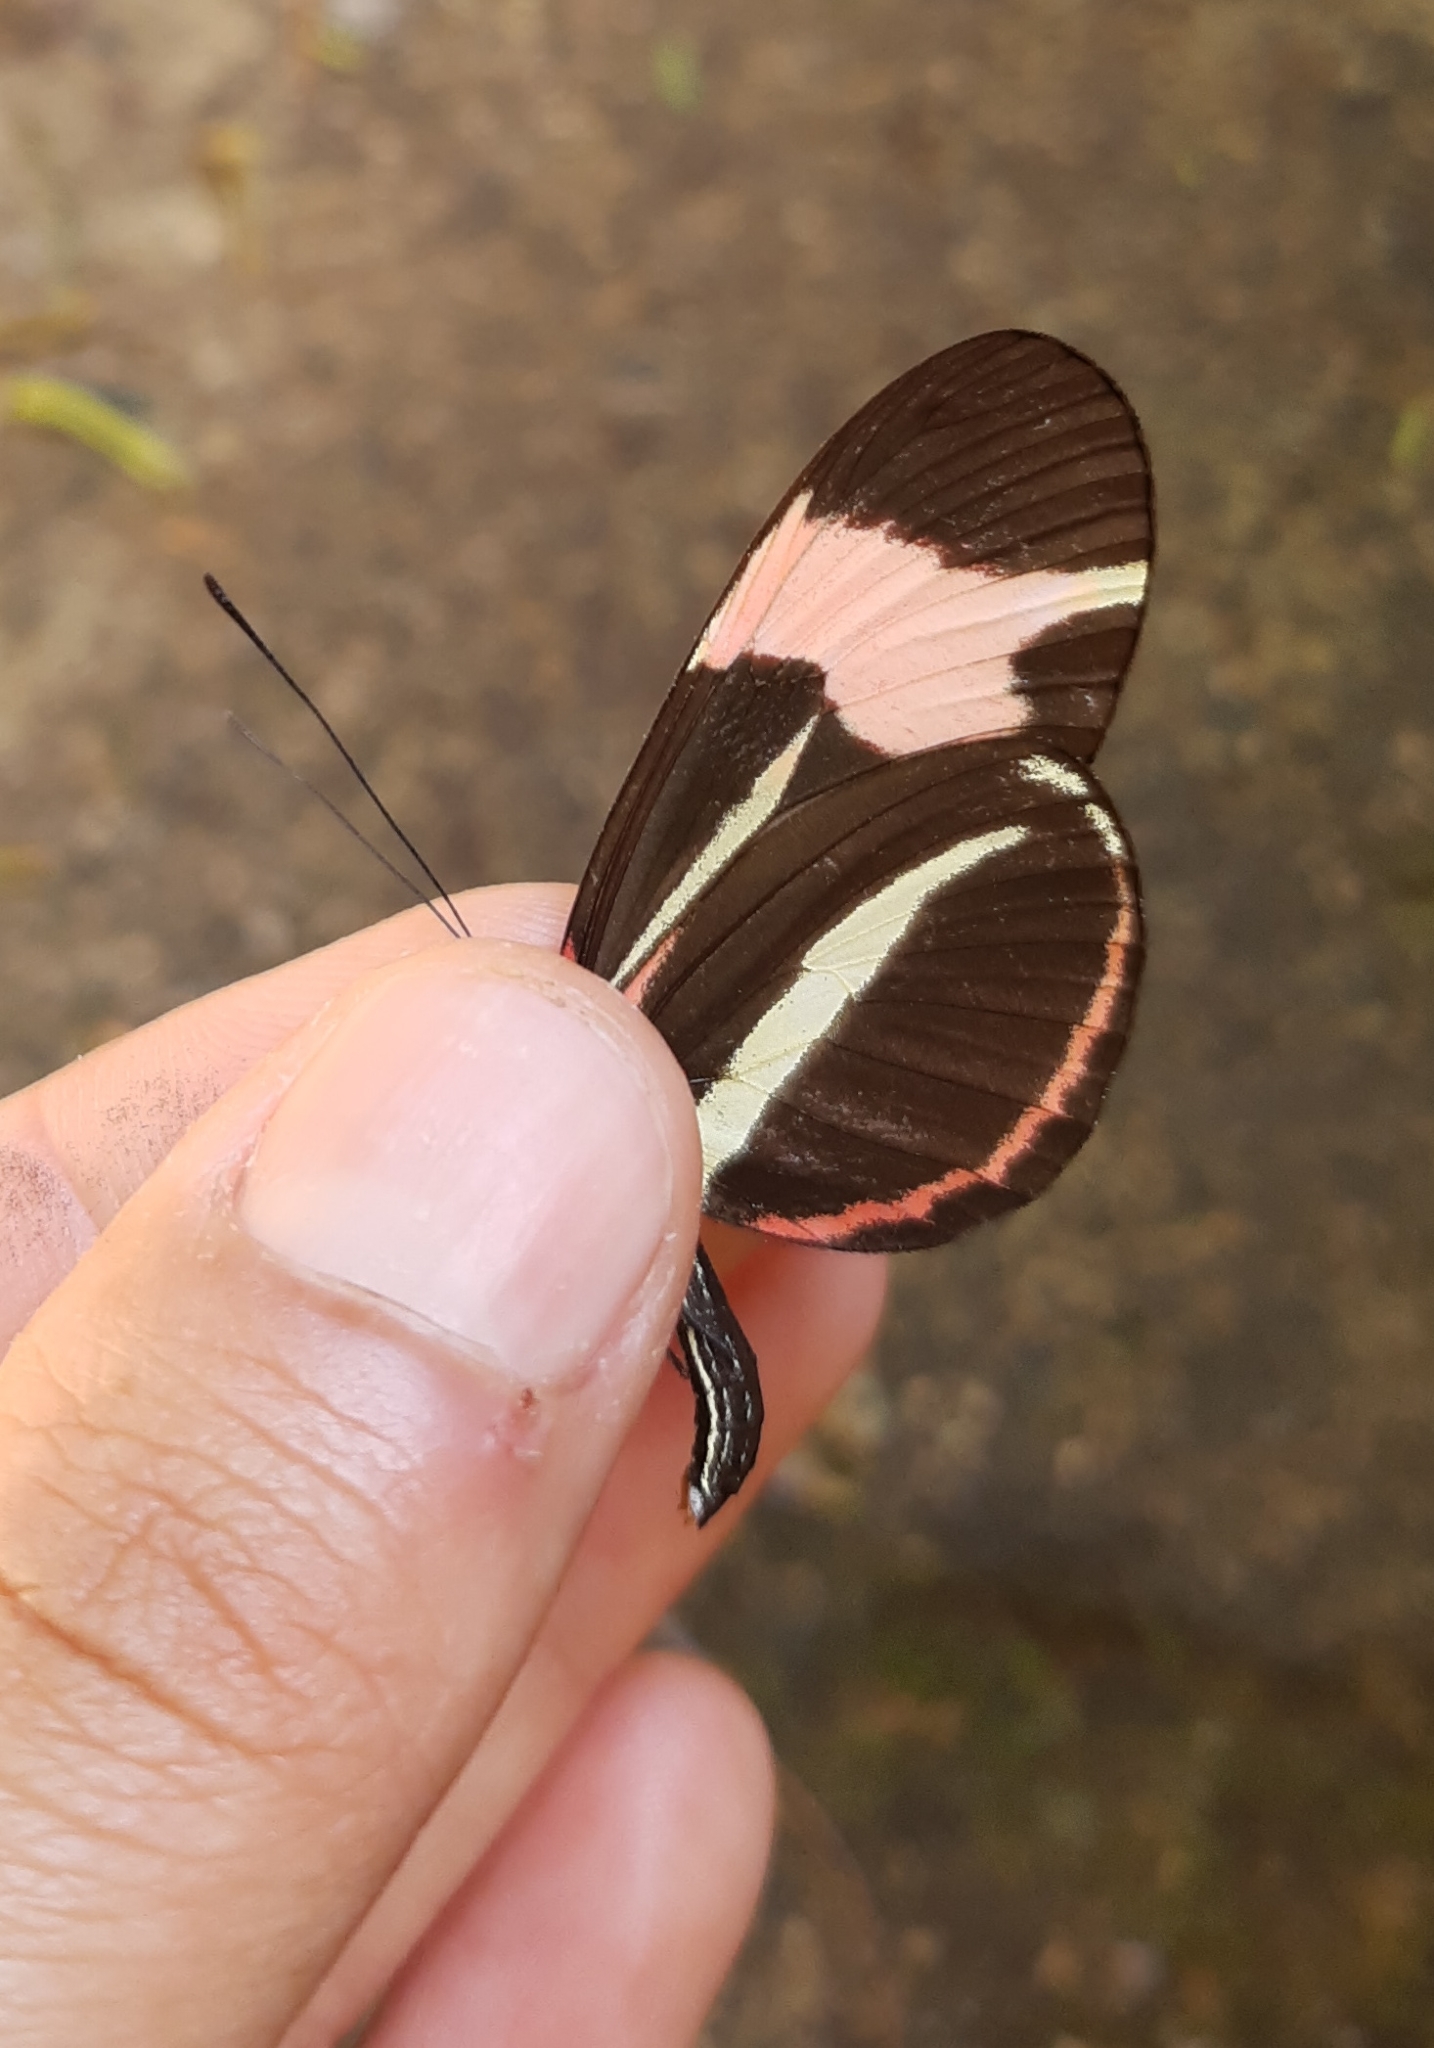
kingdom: Animalia
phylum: Arthropoda
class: Insecta
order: Lepidoptera
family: Nymphalidae
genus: Heliconius
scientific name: Heliconius besckei
